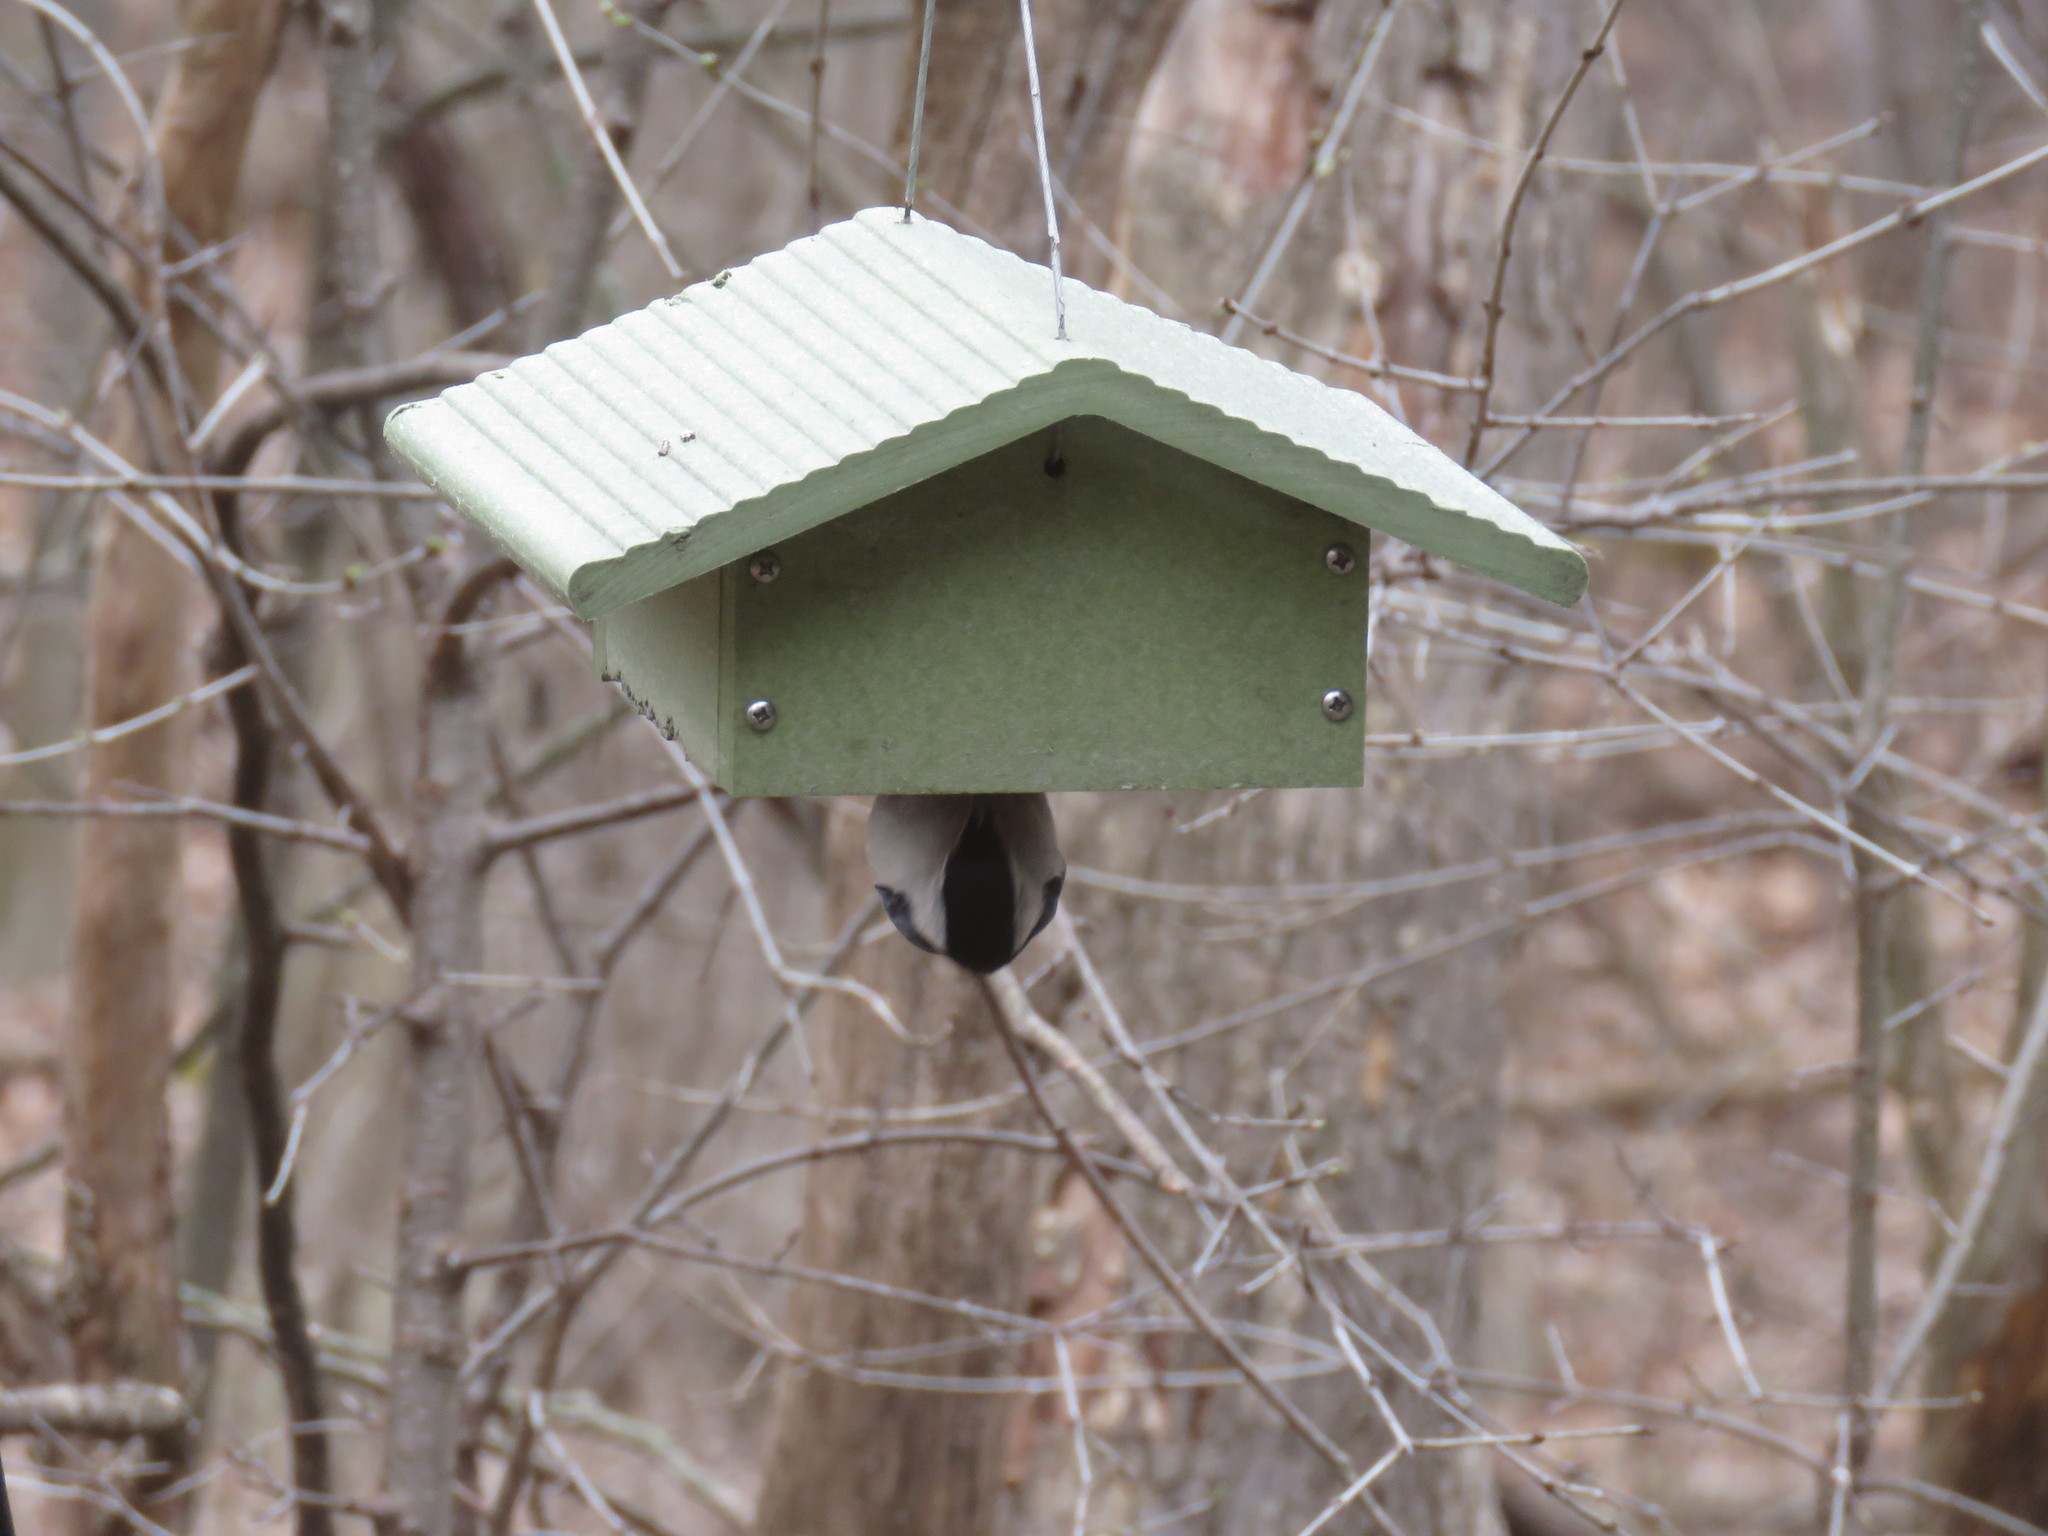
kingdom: Animalia
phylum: Chordata
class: Aves
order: Passeriformes
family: Sittidae
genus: Sitta
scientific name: Sitta carolinensis
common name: White-breasted nuthatch
